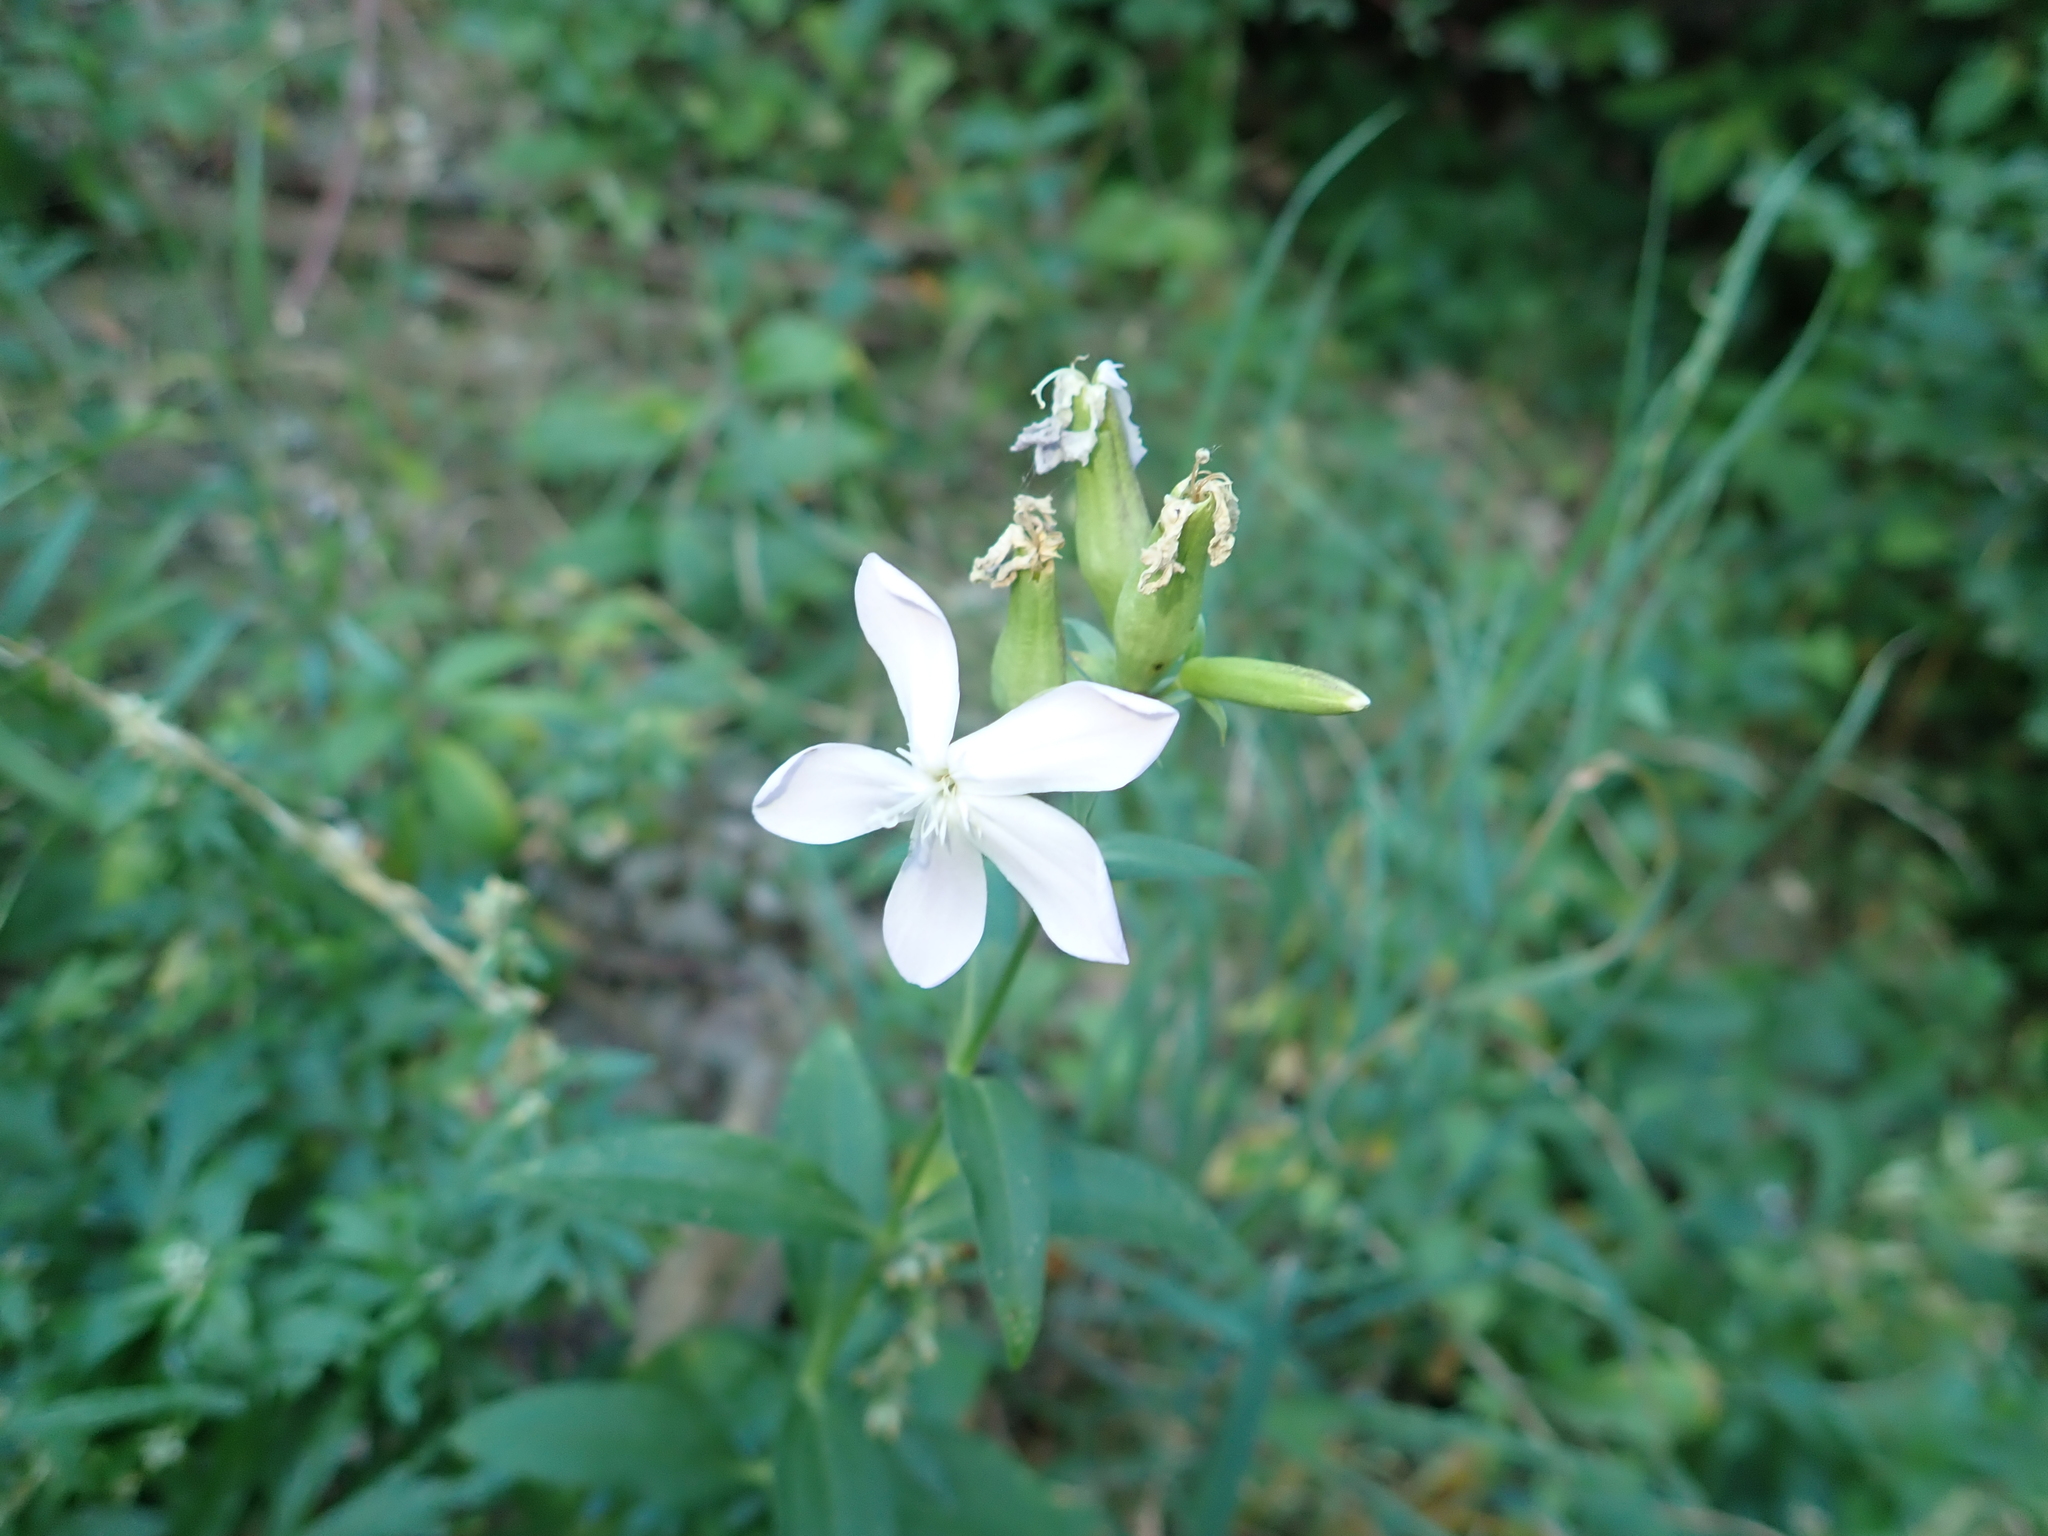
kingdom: Plantae
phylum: Tracheophyta
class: Magnoliopsida
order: Caryophyllales
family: Caryophyllaceae
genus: Saponaria
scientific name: Saponaria officinalis
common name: Soapwort
